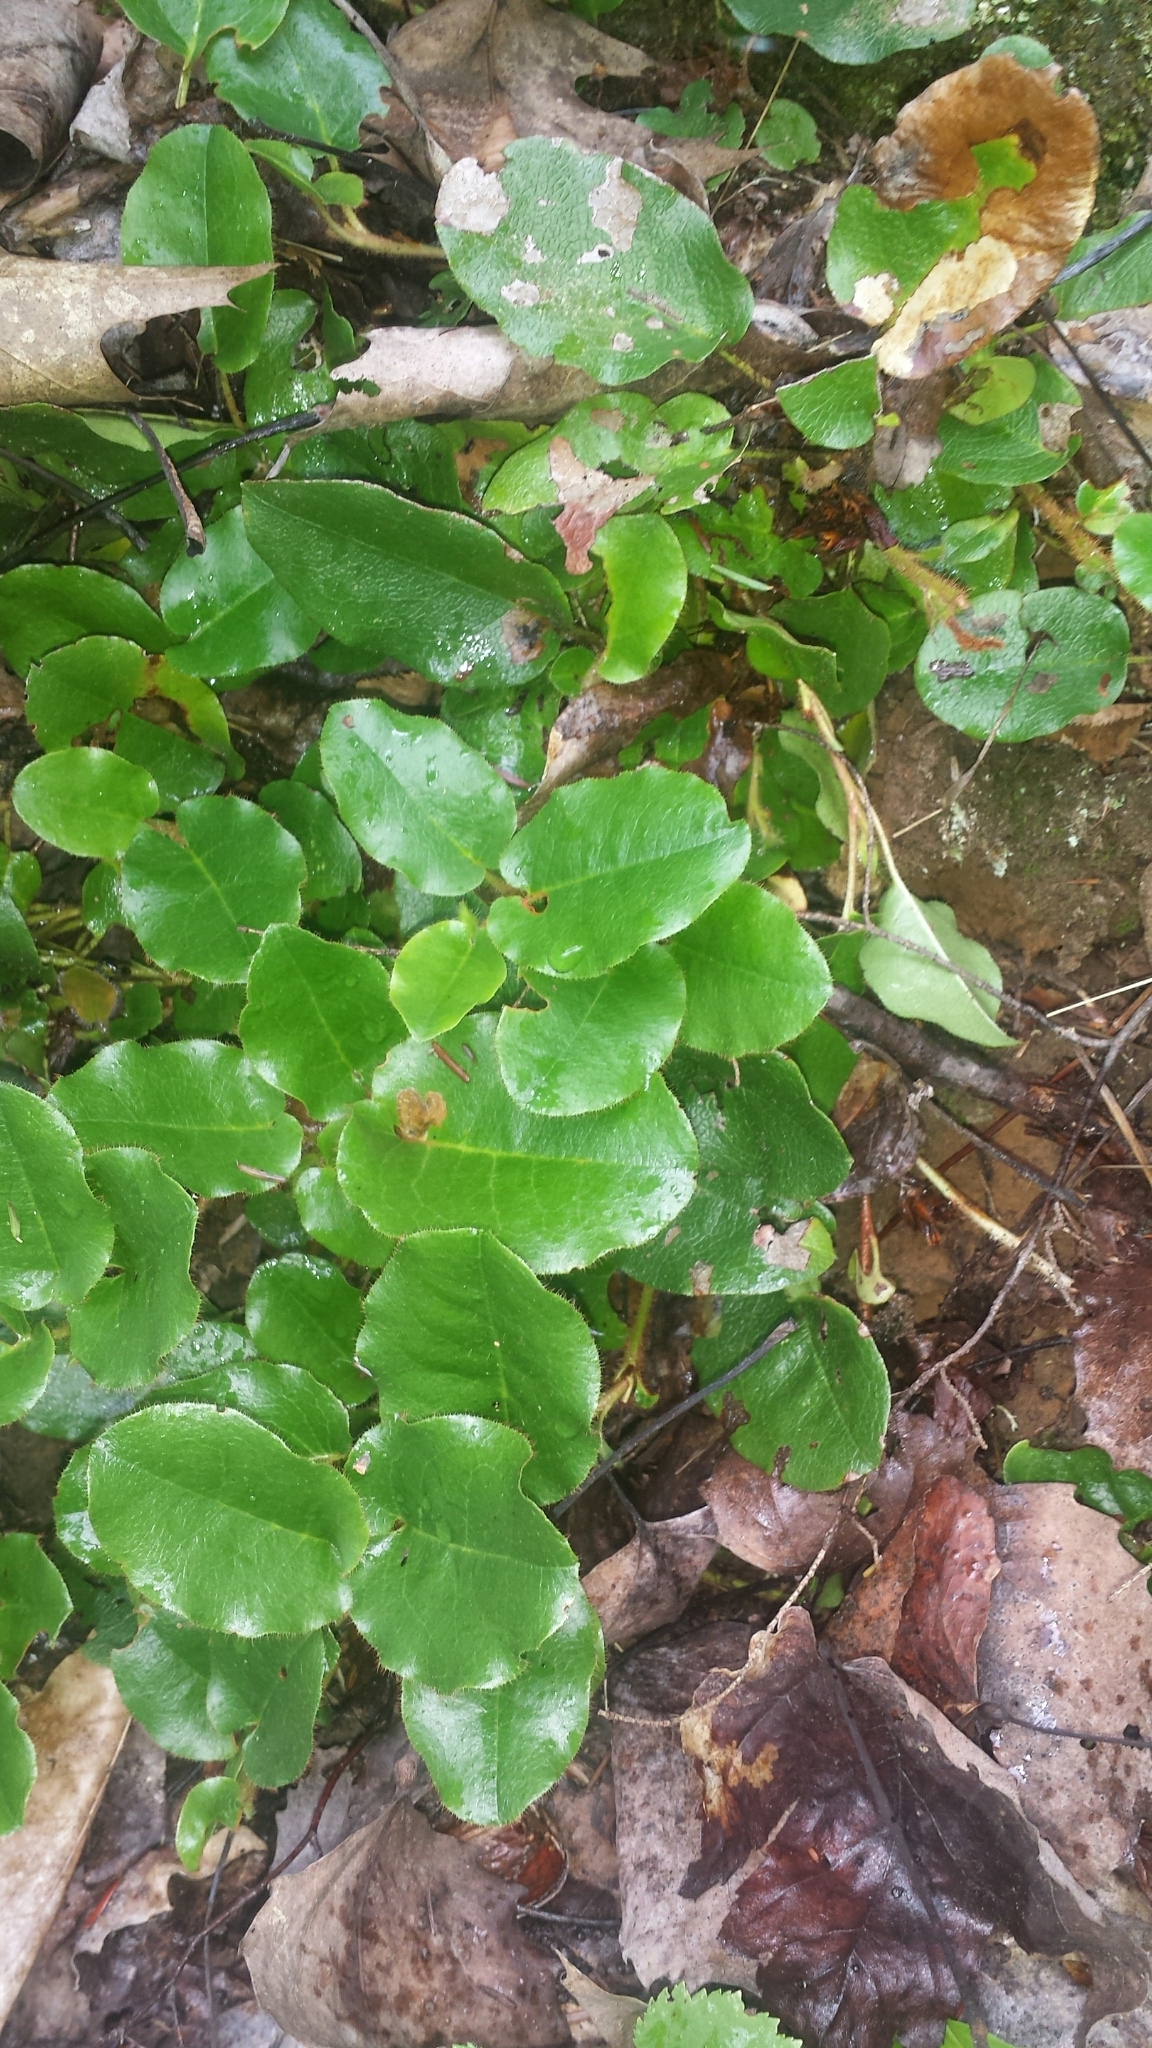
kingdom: Plantae
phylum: Tracheophyta
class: Magnoliopsida
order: Ericales
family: Ericaceae
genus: Epigaea
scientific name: Epigaea repens
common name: Gravelroot
